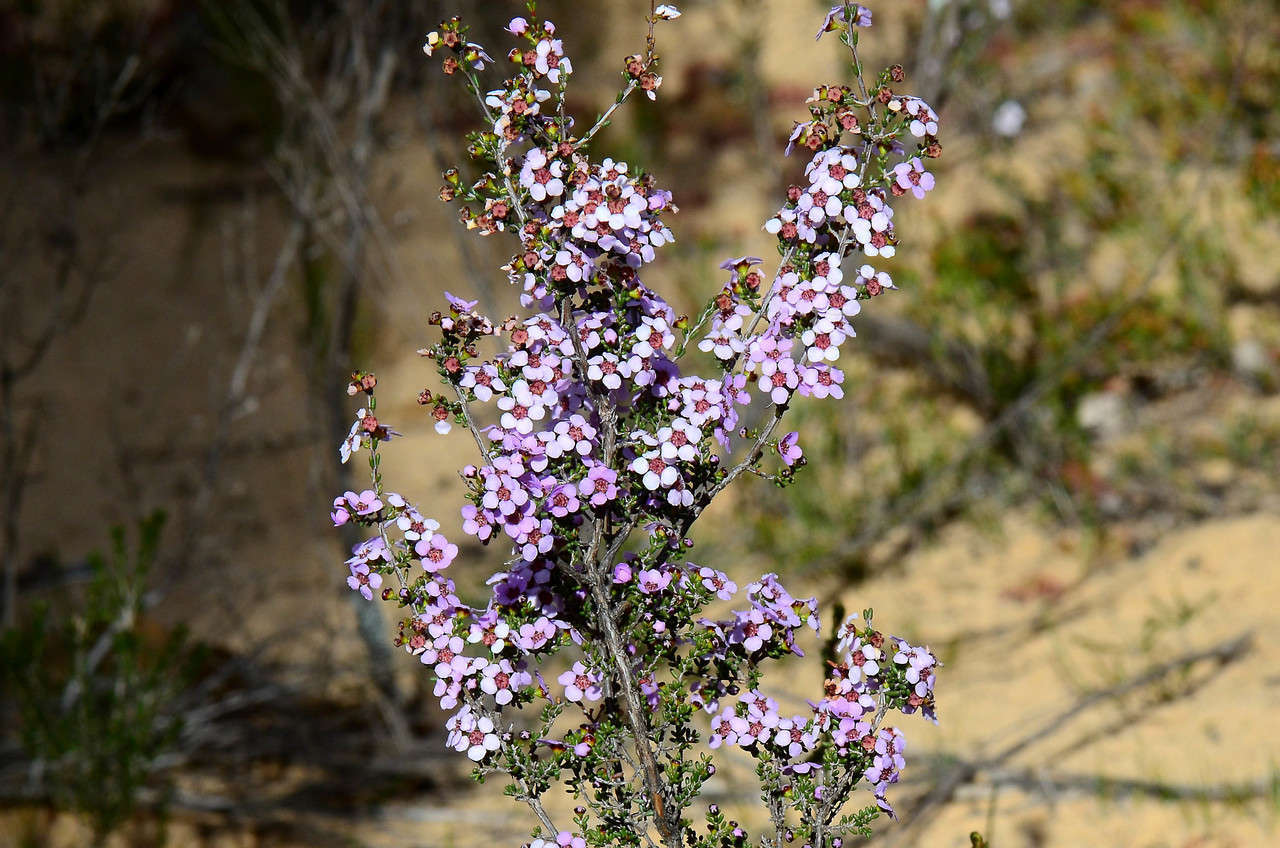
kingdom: Plantae
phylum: Tracheophyta
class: Magnoliopsida
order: Myrtales
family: Myrtaceae
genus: Rinzia
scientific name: Rinzia orientalis
